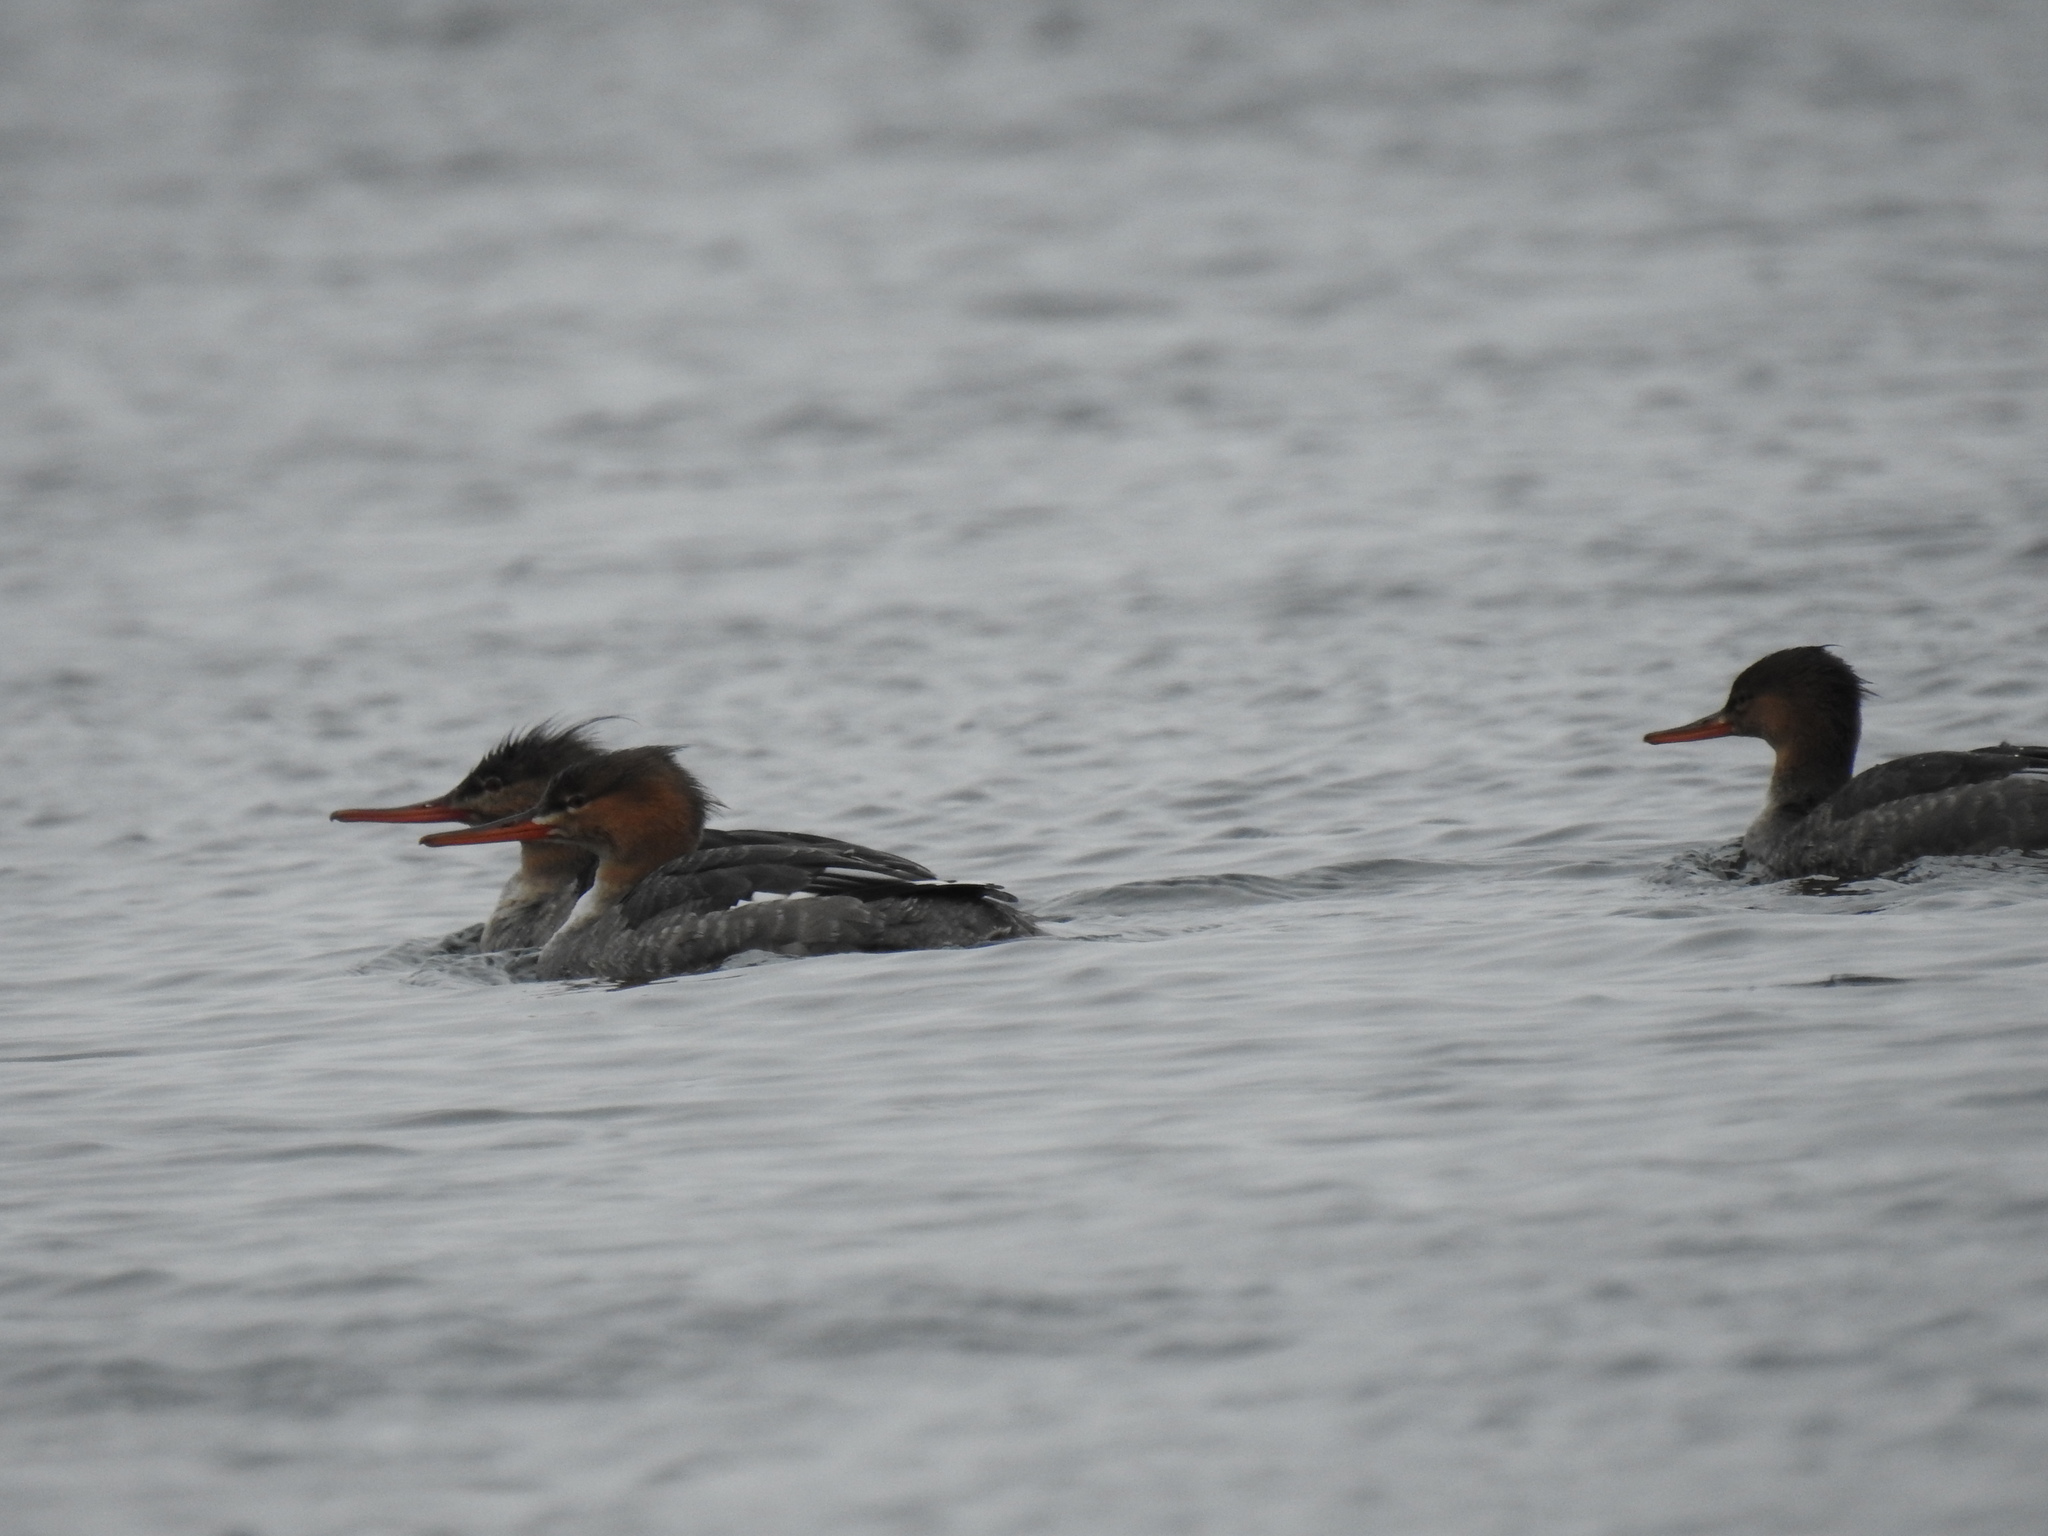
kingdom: Animalia
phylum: Chordata
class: Aves
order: Anseriformes
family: Anatidae
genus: Mergus
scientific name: Mergus serrator
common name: Red-breasted merganser
